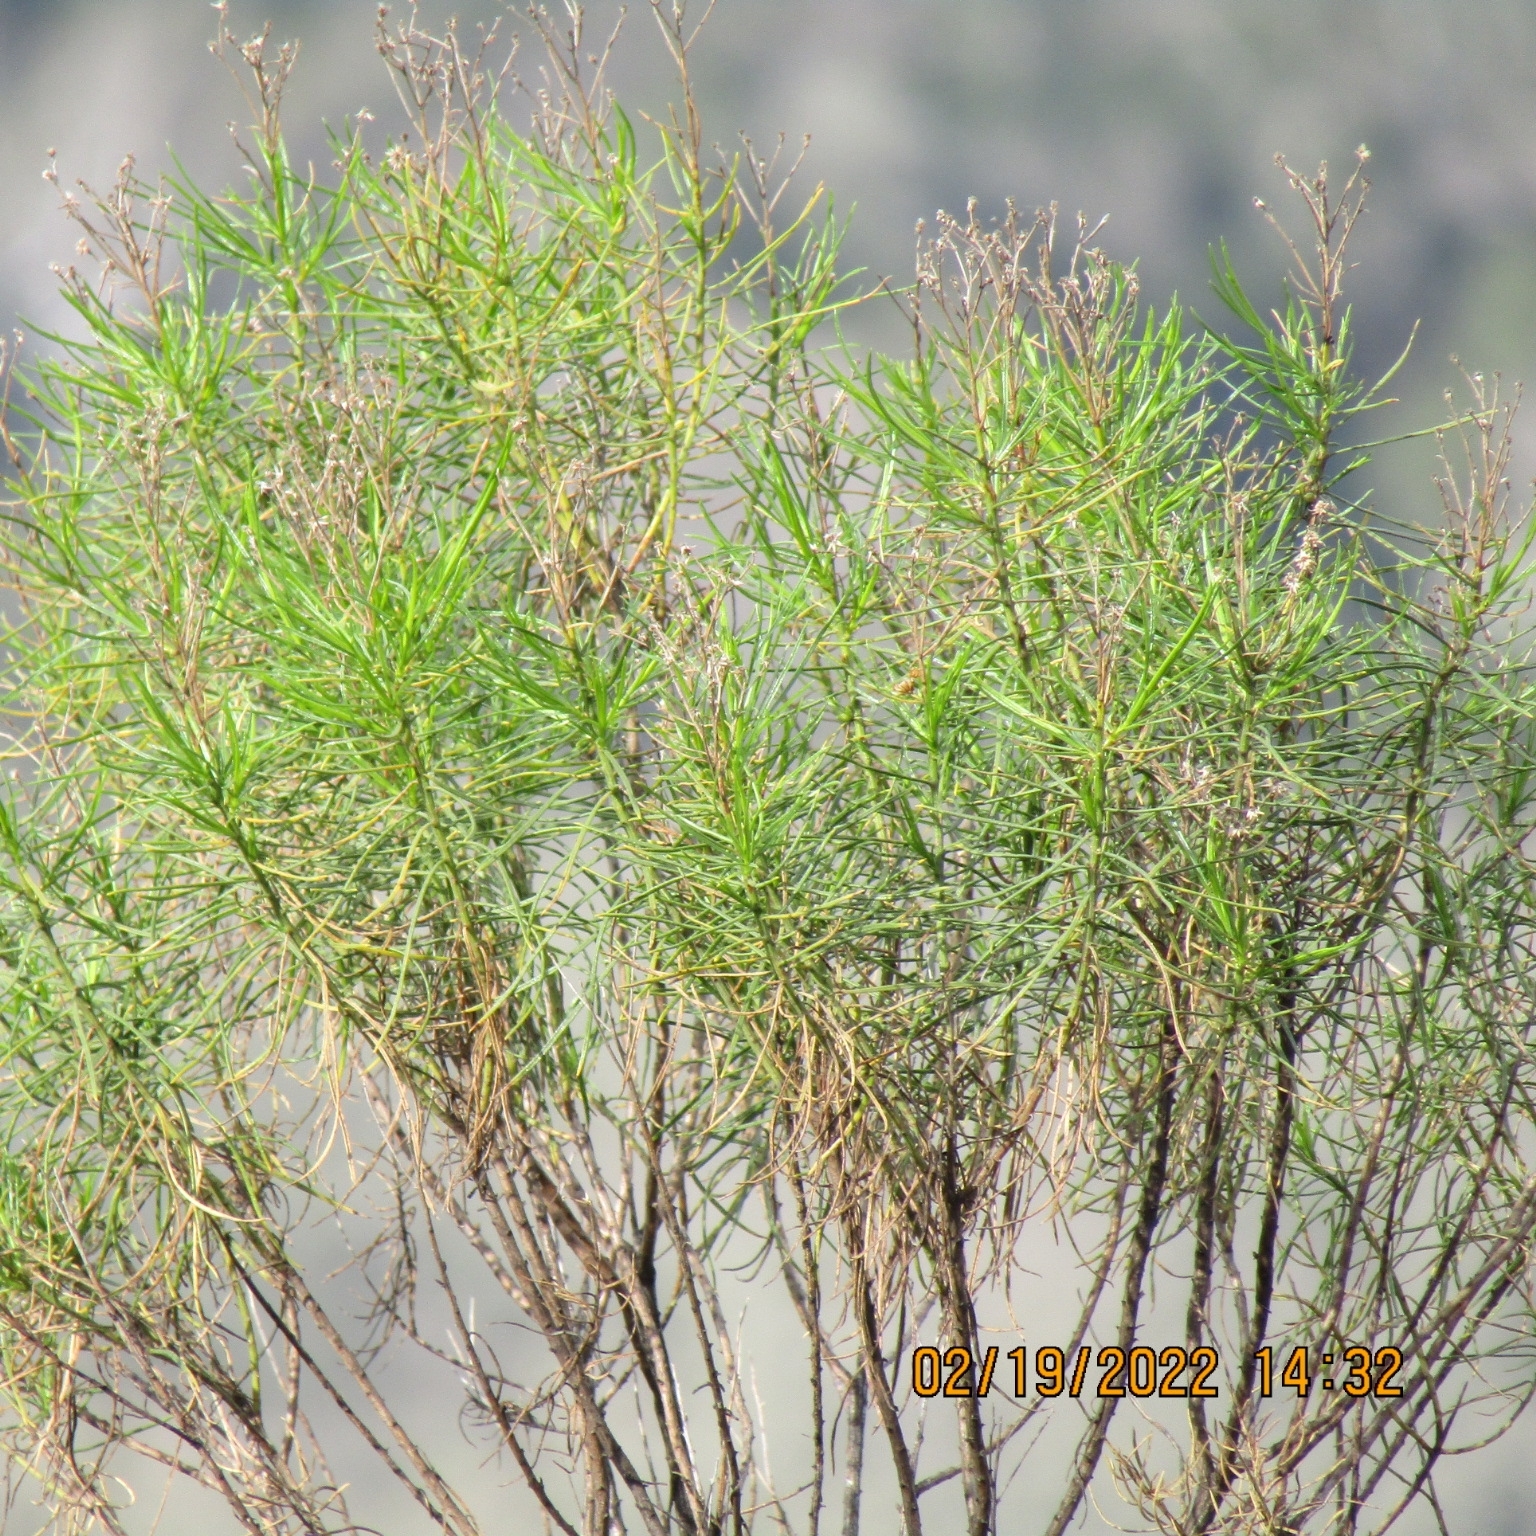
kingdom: Plantae
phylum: Tracheophyta
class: Magnoliopsida
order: Asterales
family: Asteraceae
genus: Ericameria
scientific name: Ericameria arborescens
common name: Goldenfleece
